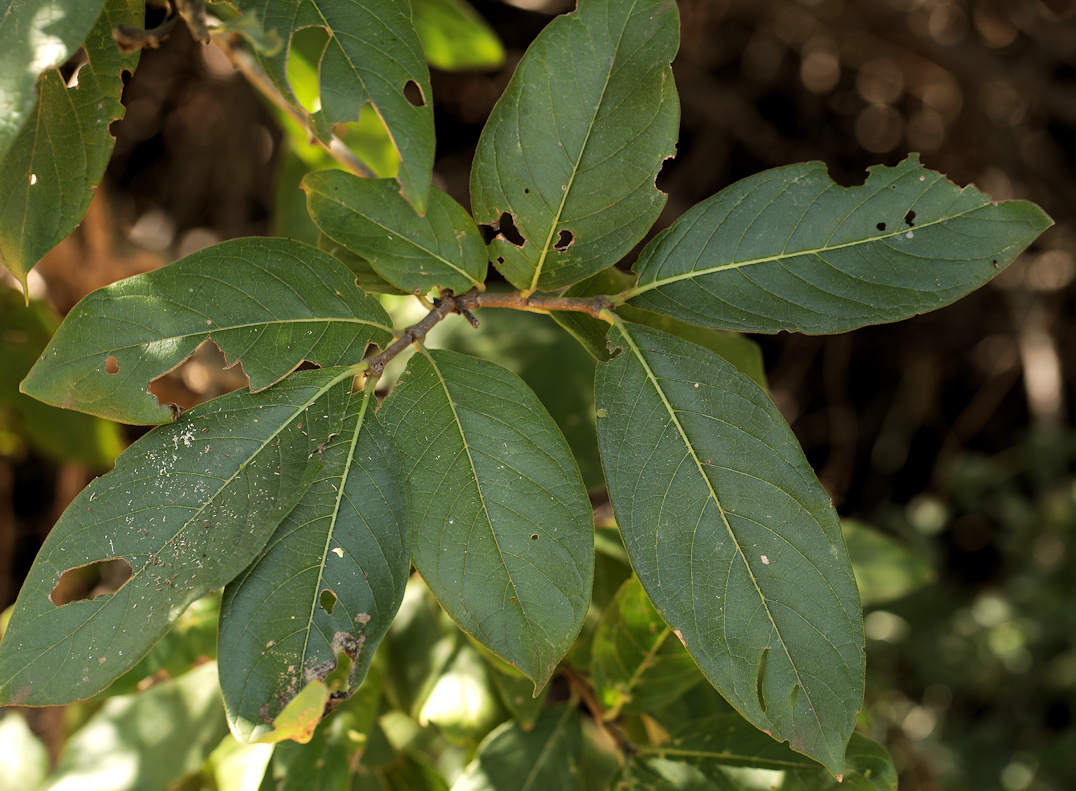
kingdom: Plantae
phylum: Tracheophyta
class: Magnoliopsida
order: Gentianales
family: Rubiaceae
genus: Vangueria
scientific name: Vangueria infausta
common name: Medlar
